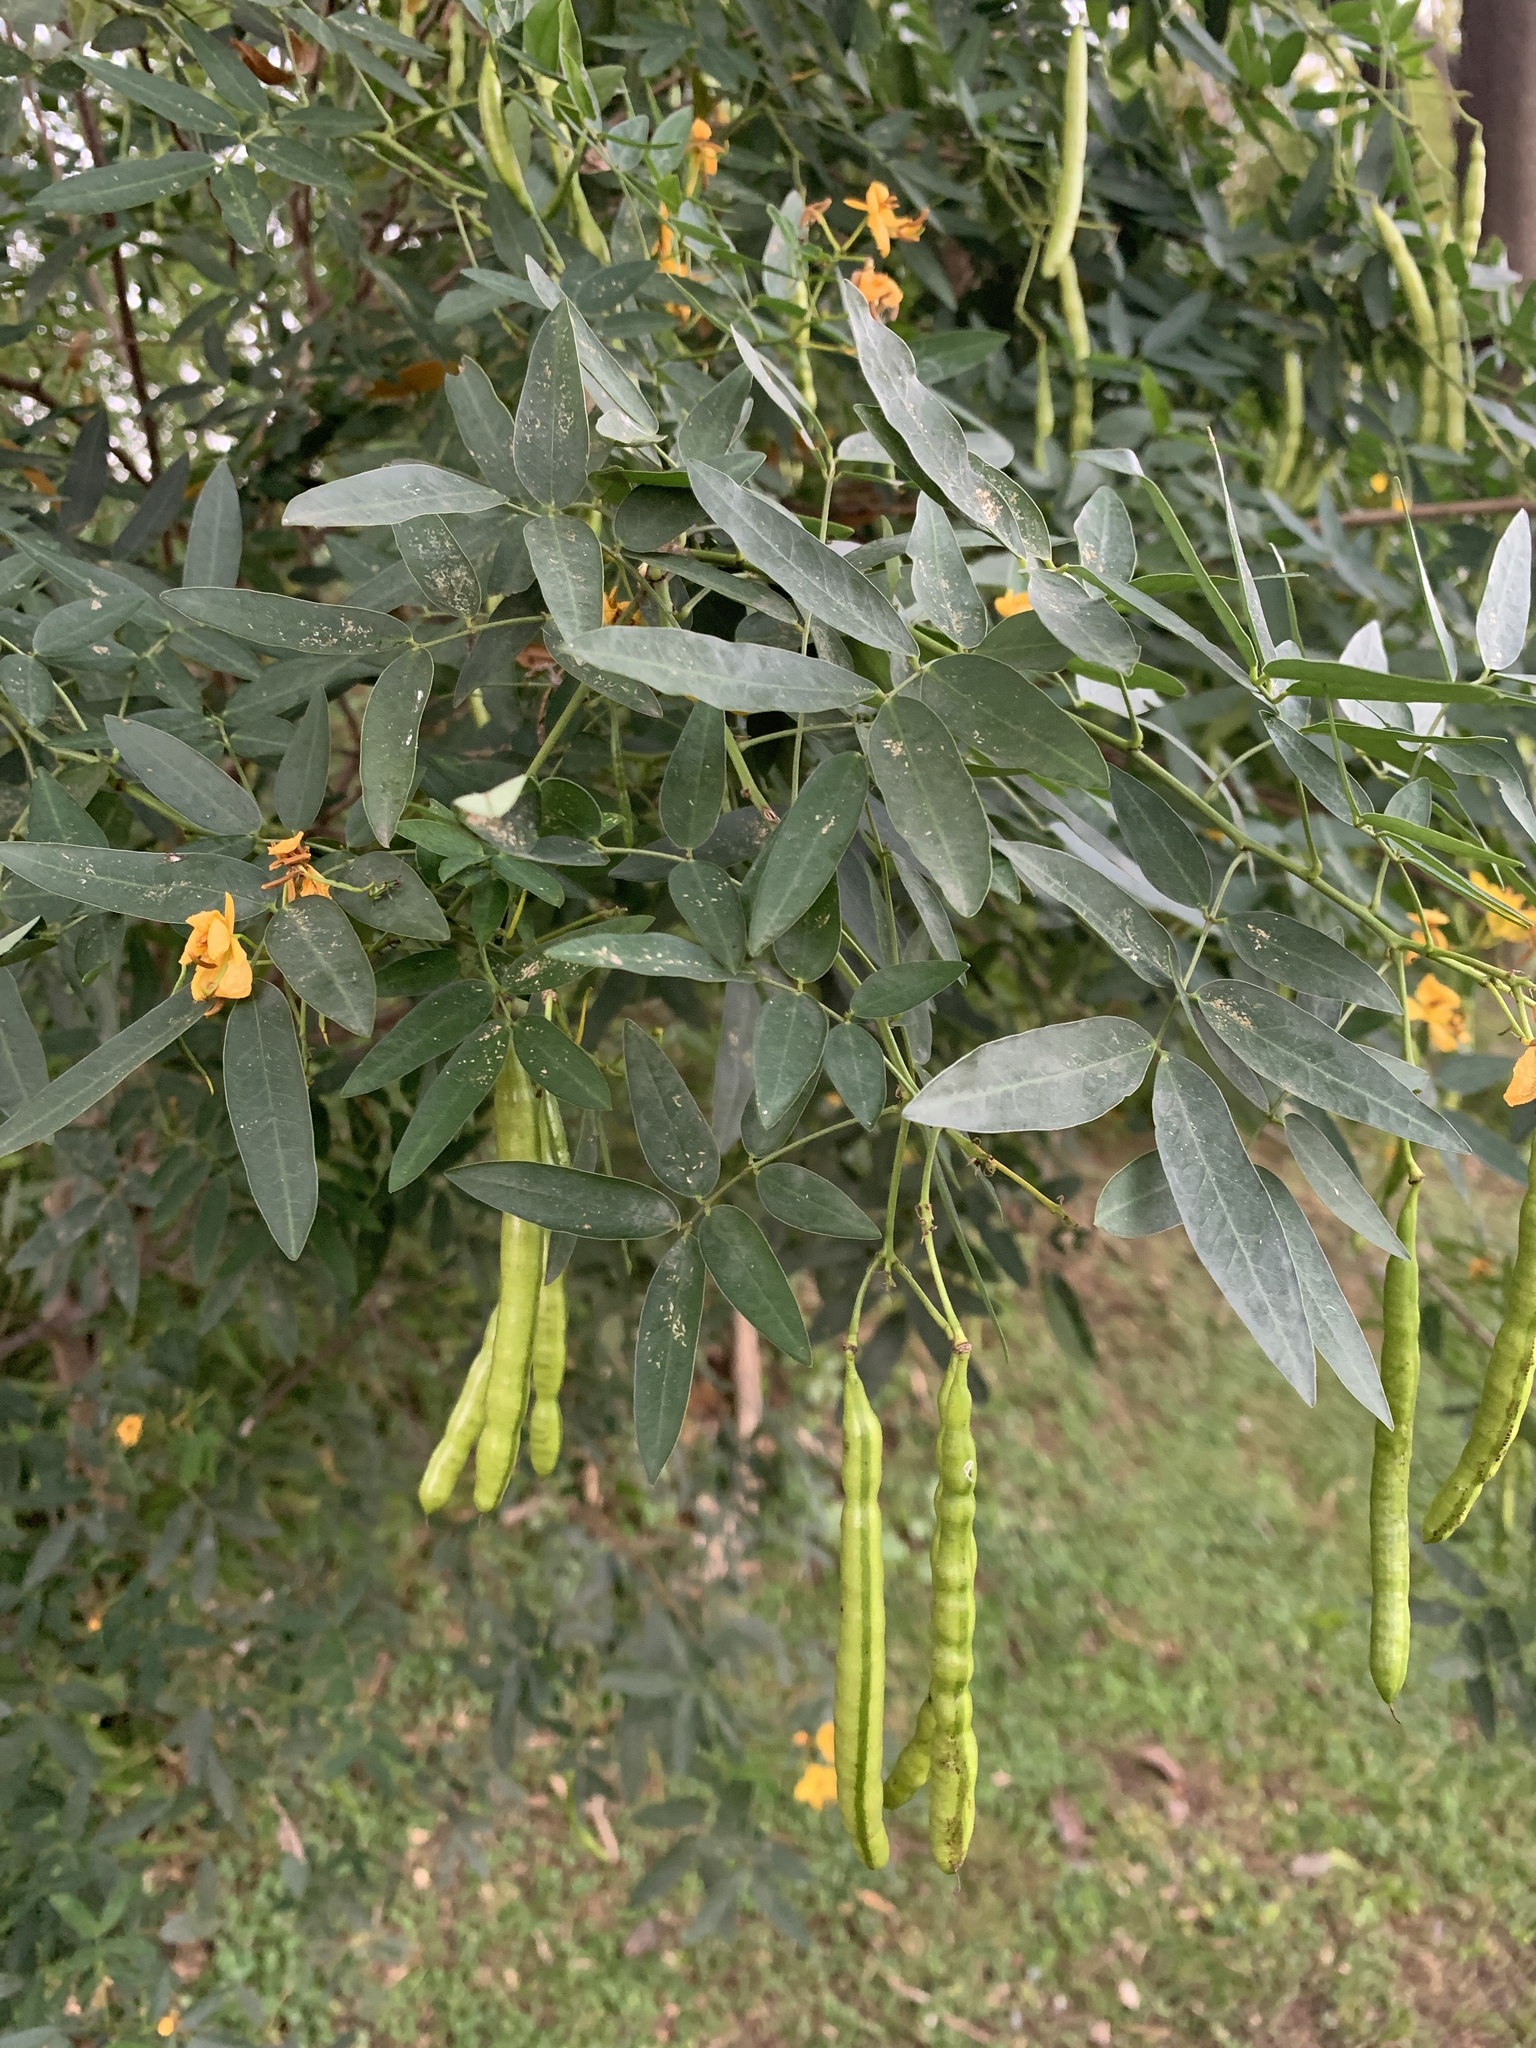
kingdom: Plantae
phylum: Tracheophyta
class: Magnoliopsida
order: Fabales
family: Fabaceae
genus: Senna
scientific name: Senna corymbosa
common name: Argentine senna
